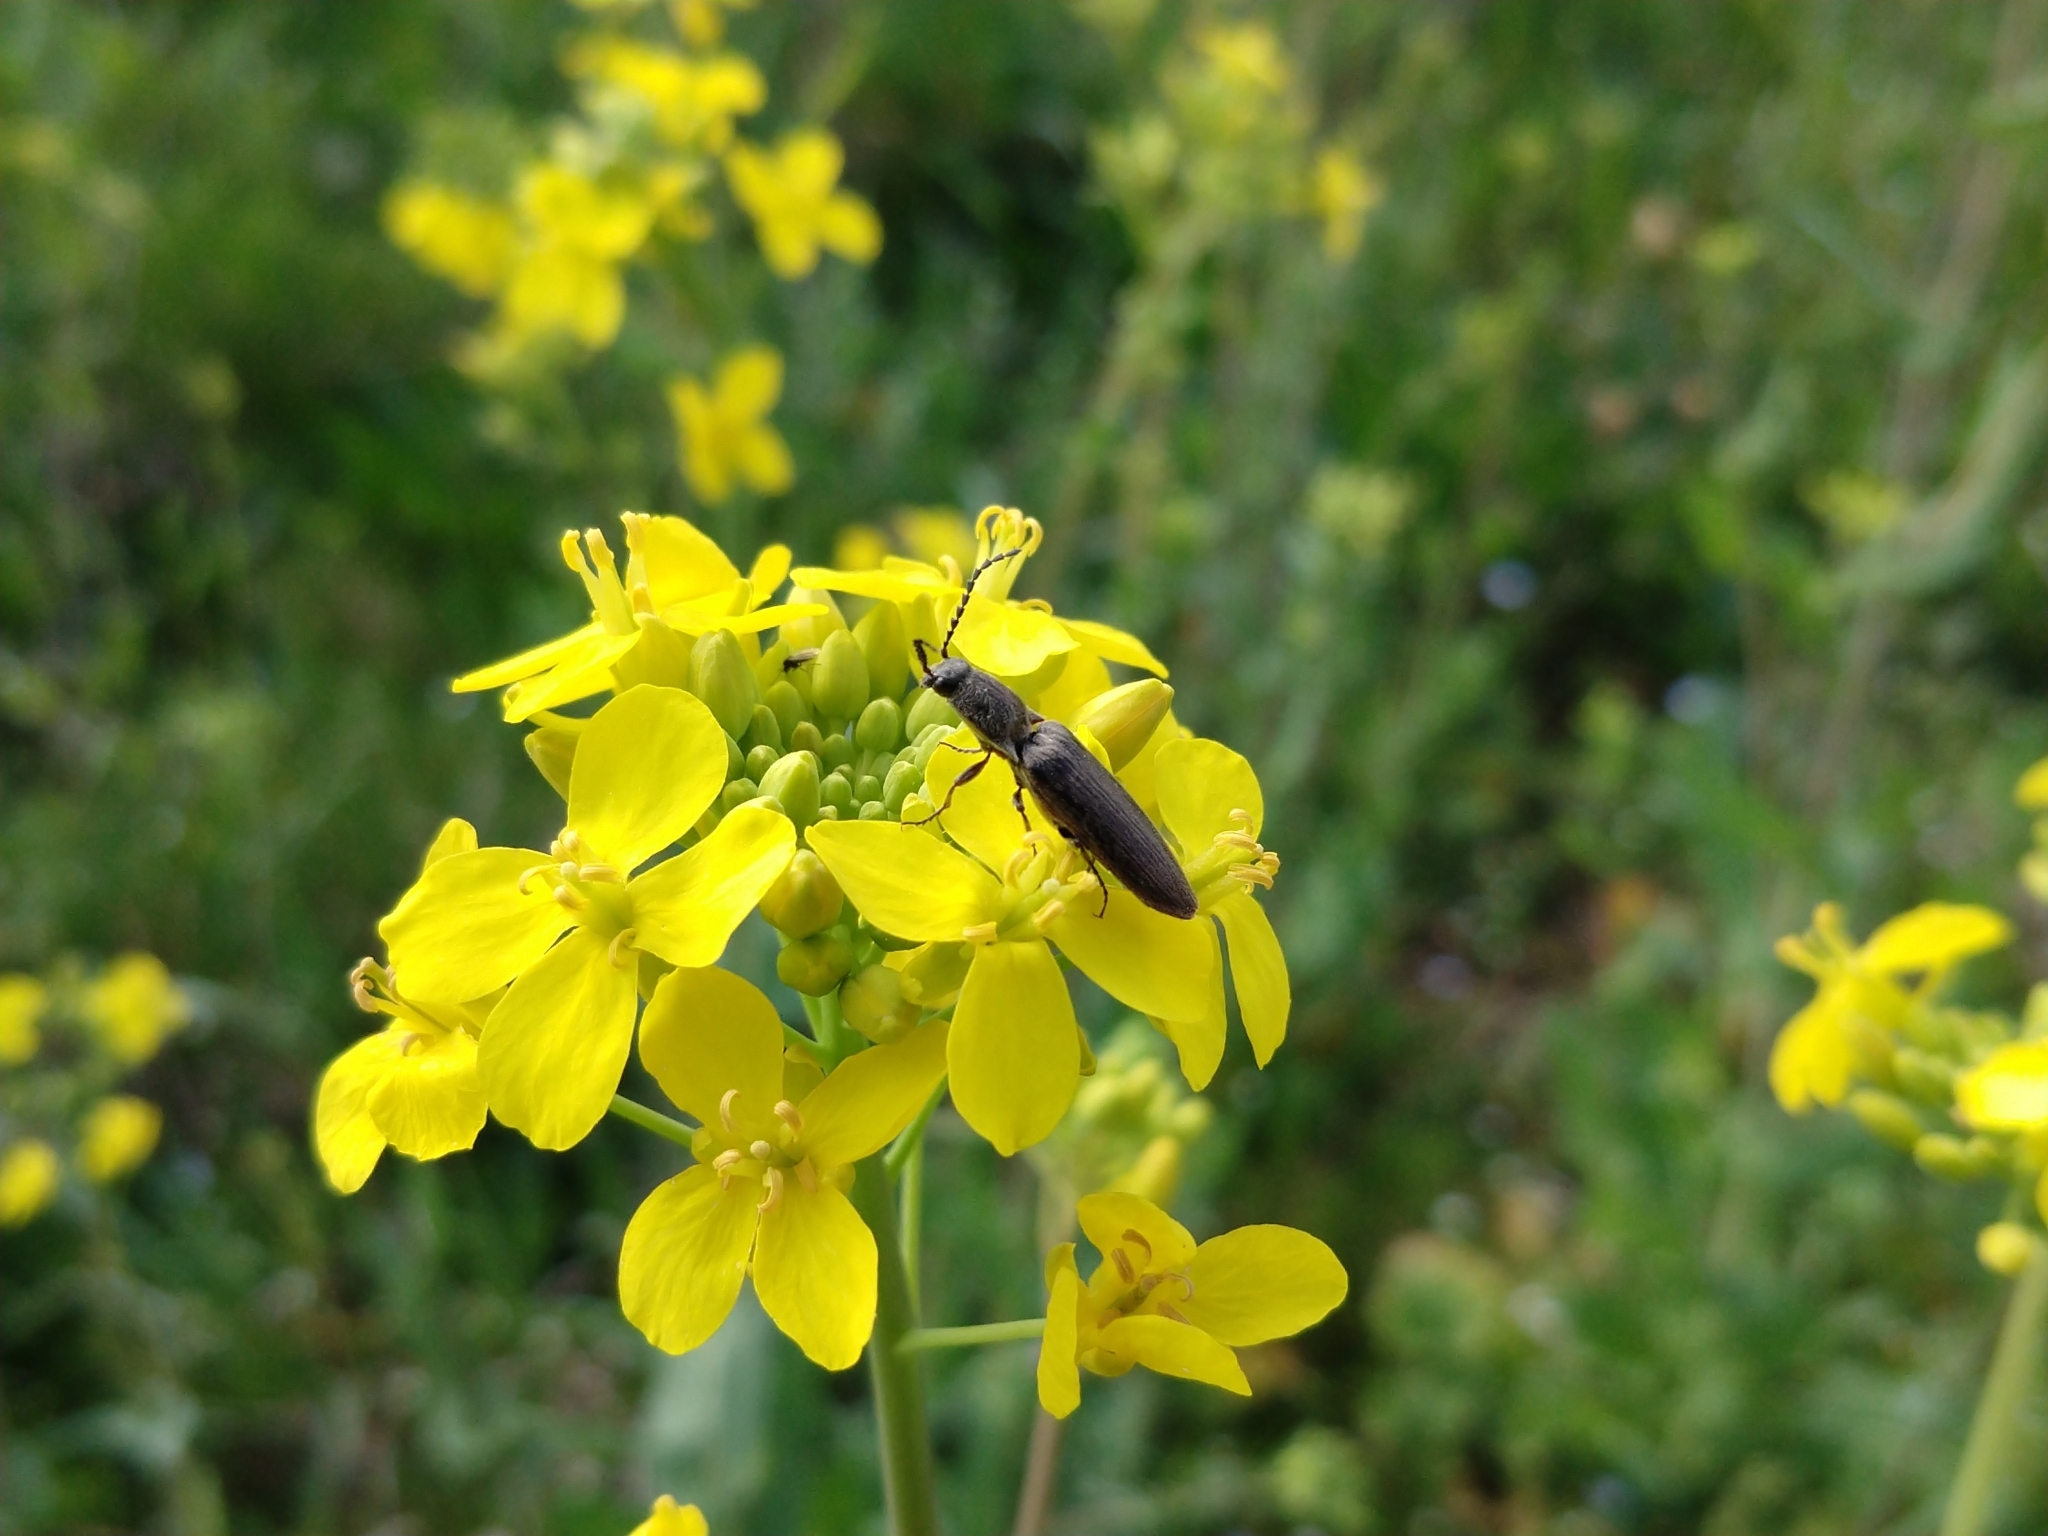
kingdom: Animalia
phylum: Arthropoda
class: Insecta
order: Coleoptera
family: Elateridae
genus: Sylvanelater
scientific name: Sylvanelater cylindriformis
